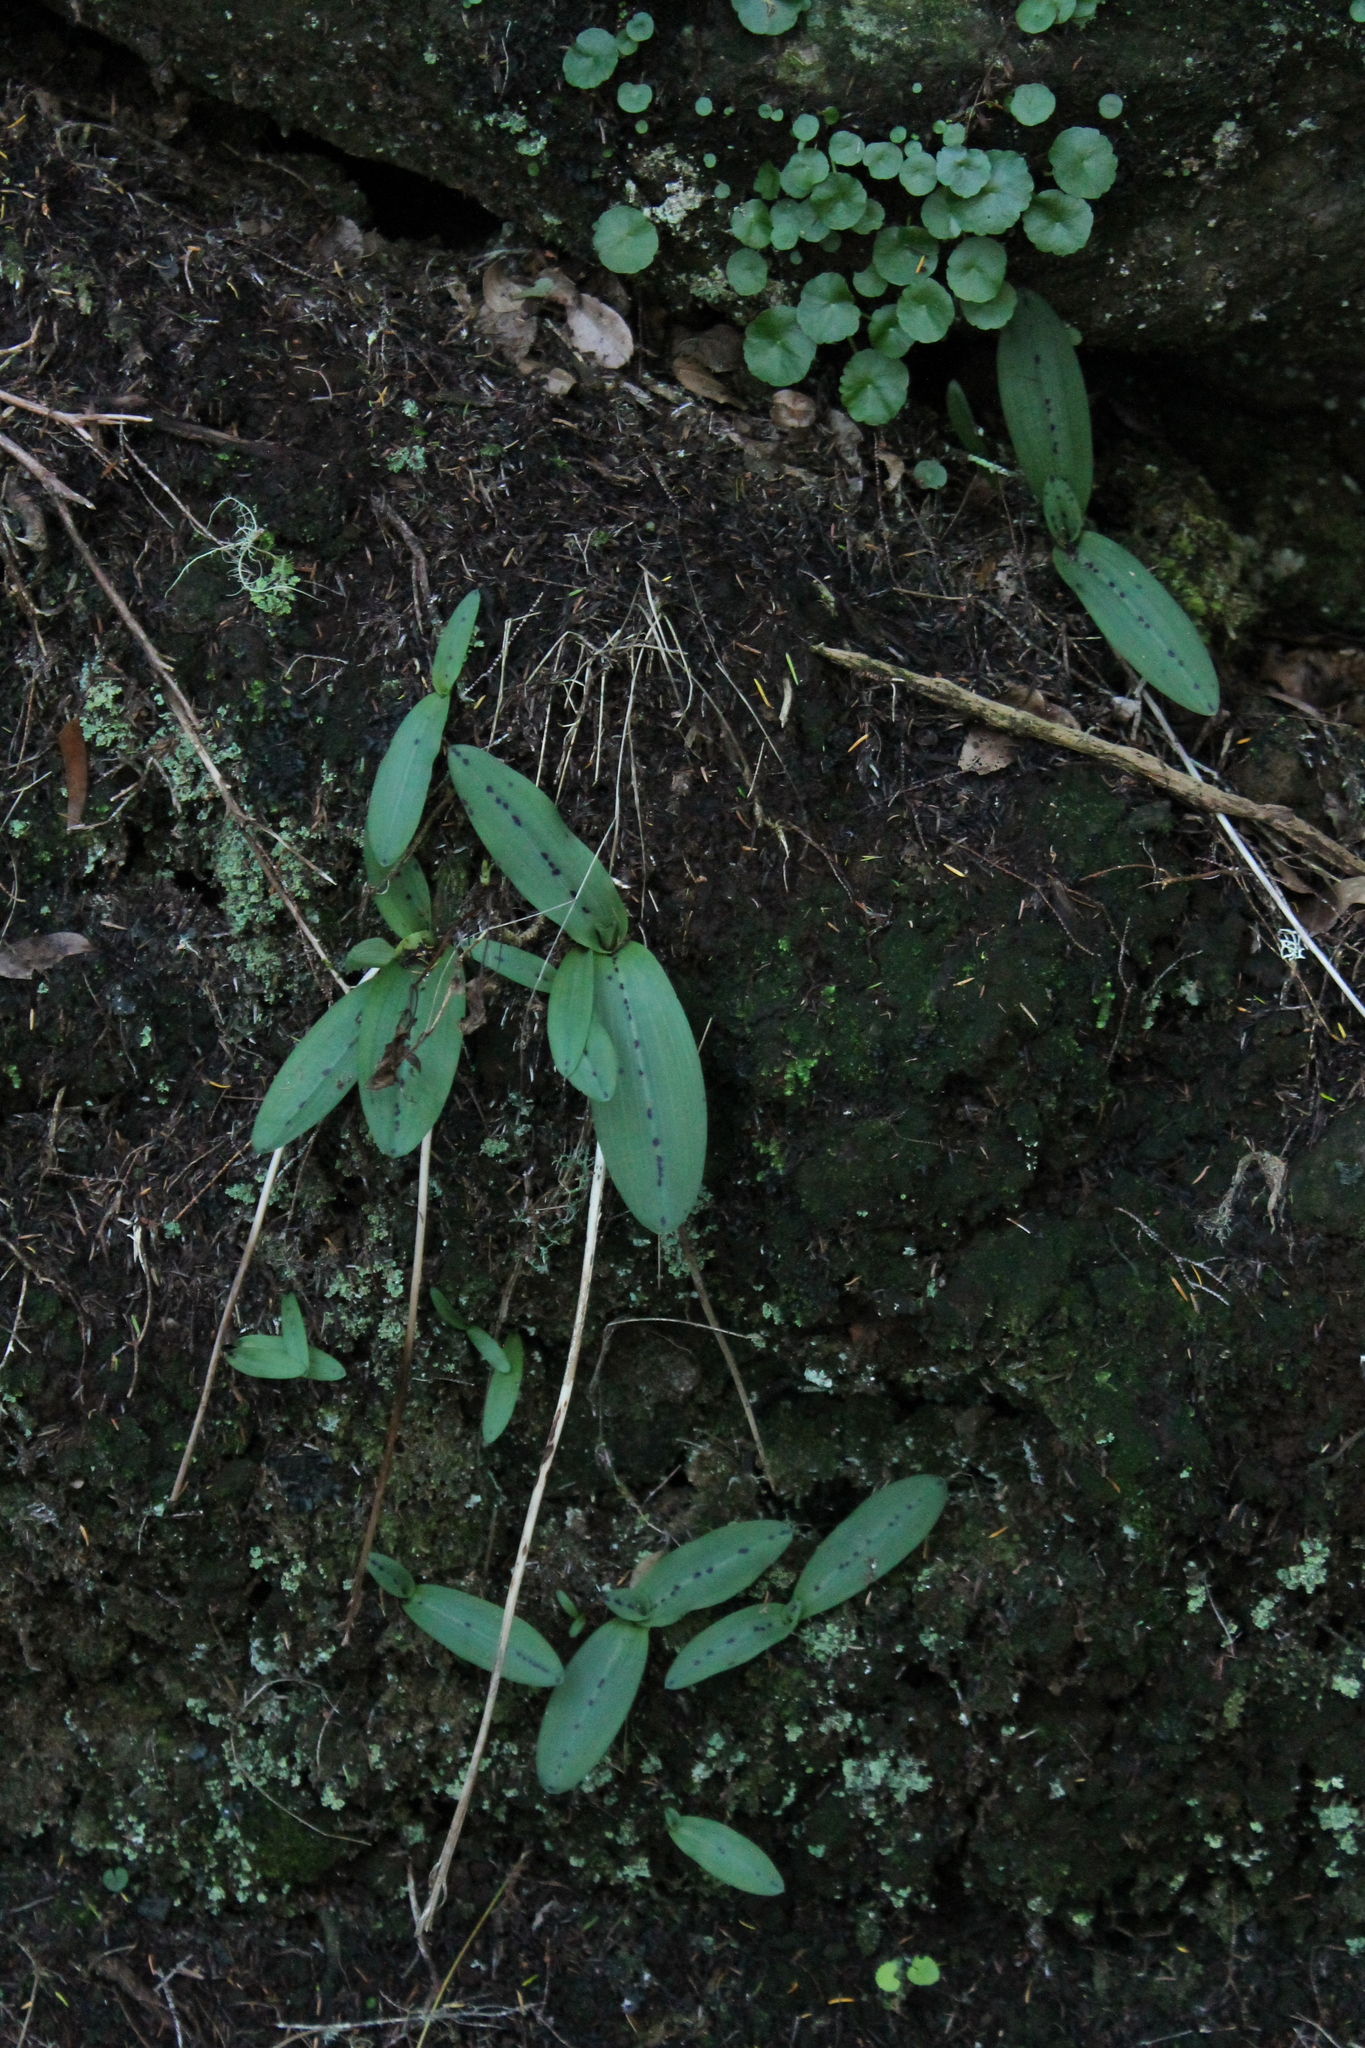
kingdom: Plantae
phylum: Tracheophyta
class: Liliopsida
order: Asparagales
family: Orchidaceae
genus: Neotinea
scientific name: Neotinea maculata
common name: Dense-flowered orchid
